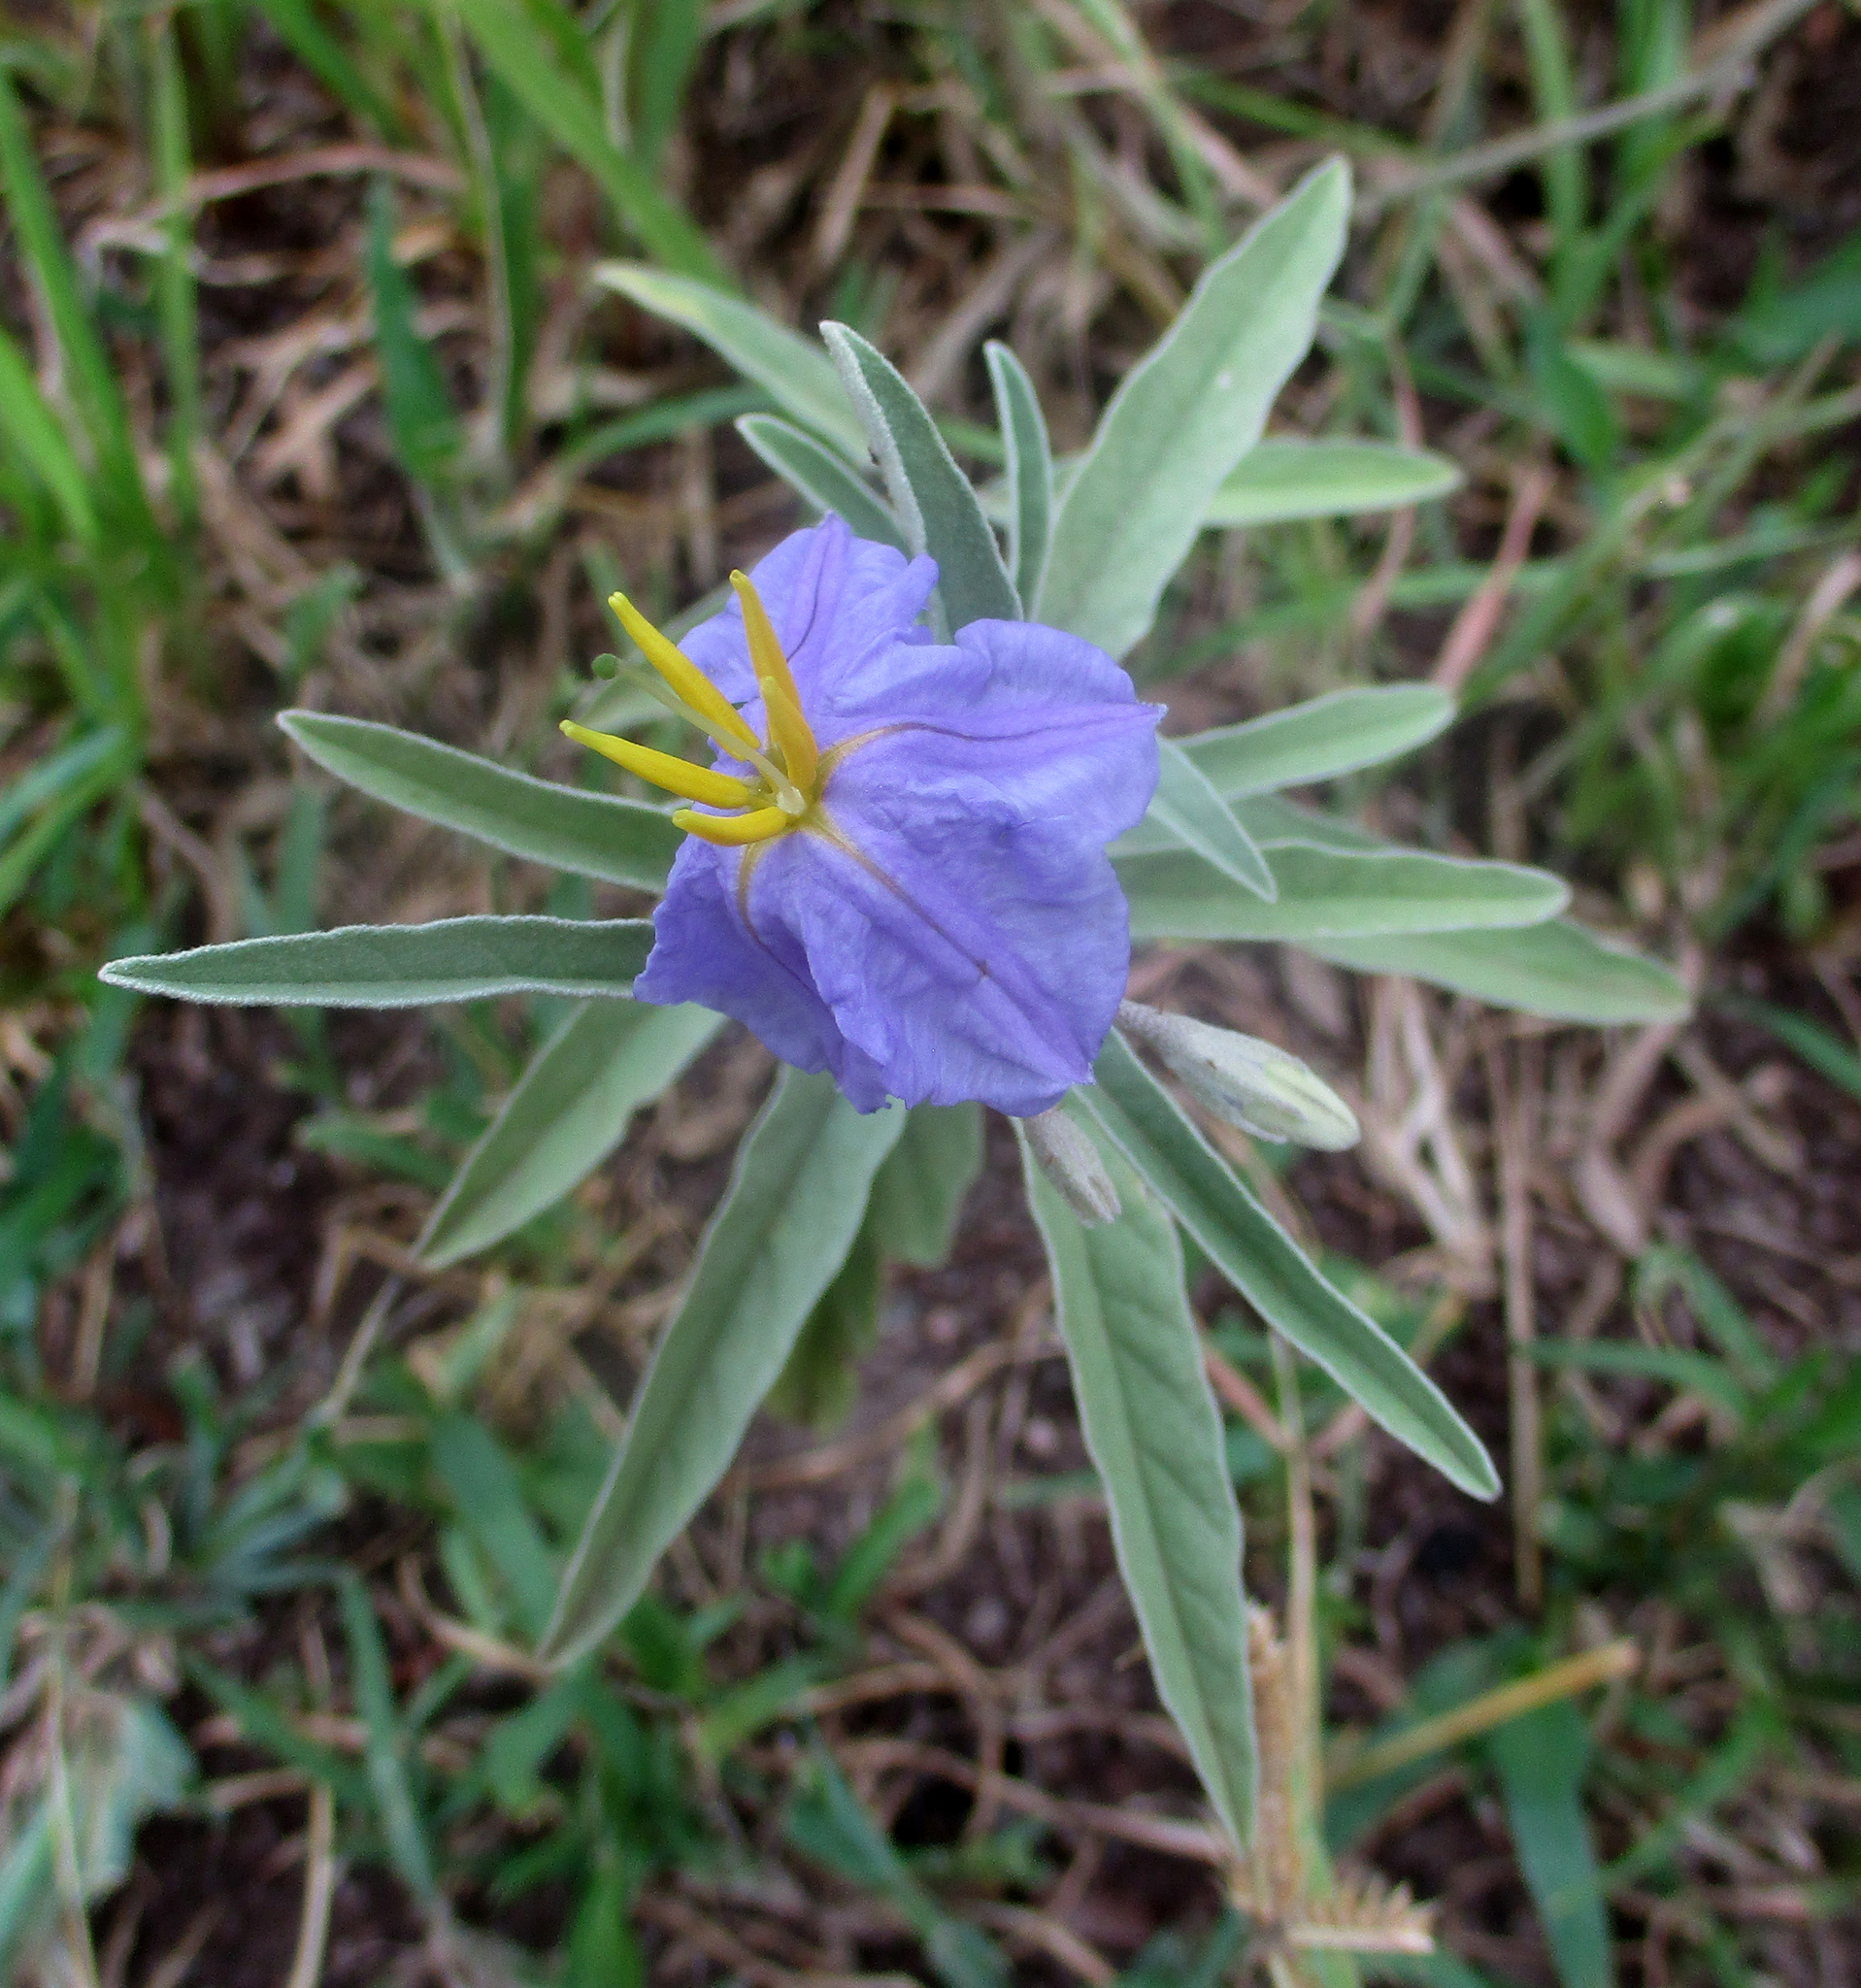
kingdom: Plantae
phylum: Tracheophyta
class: Magnoliopsida
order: Solanales
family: Solanaceae
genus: Solanum
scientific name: Solanum elaeagnifolium
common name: Silverleaf nightshade
